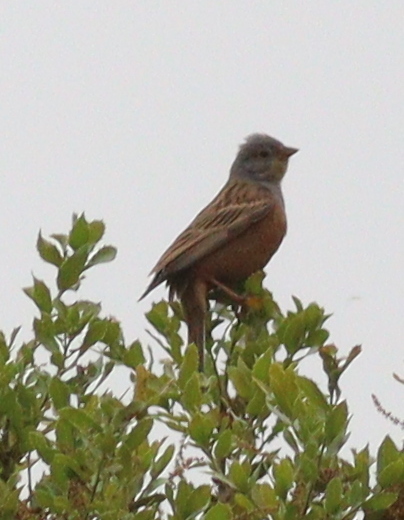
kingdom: Animalia
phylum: Chordata
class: Aves
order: Passeriformes
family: Emberizidae
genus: Emberiza
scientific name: Emberiza caesia
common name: Cretzschmar's bunting
